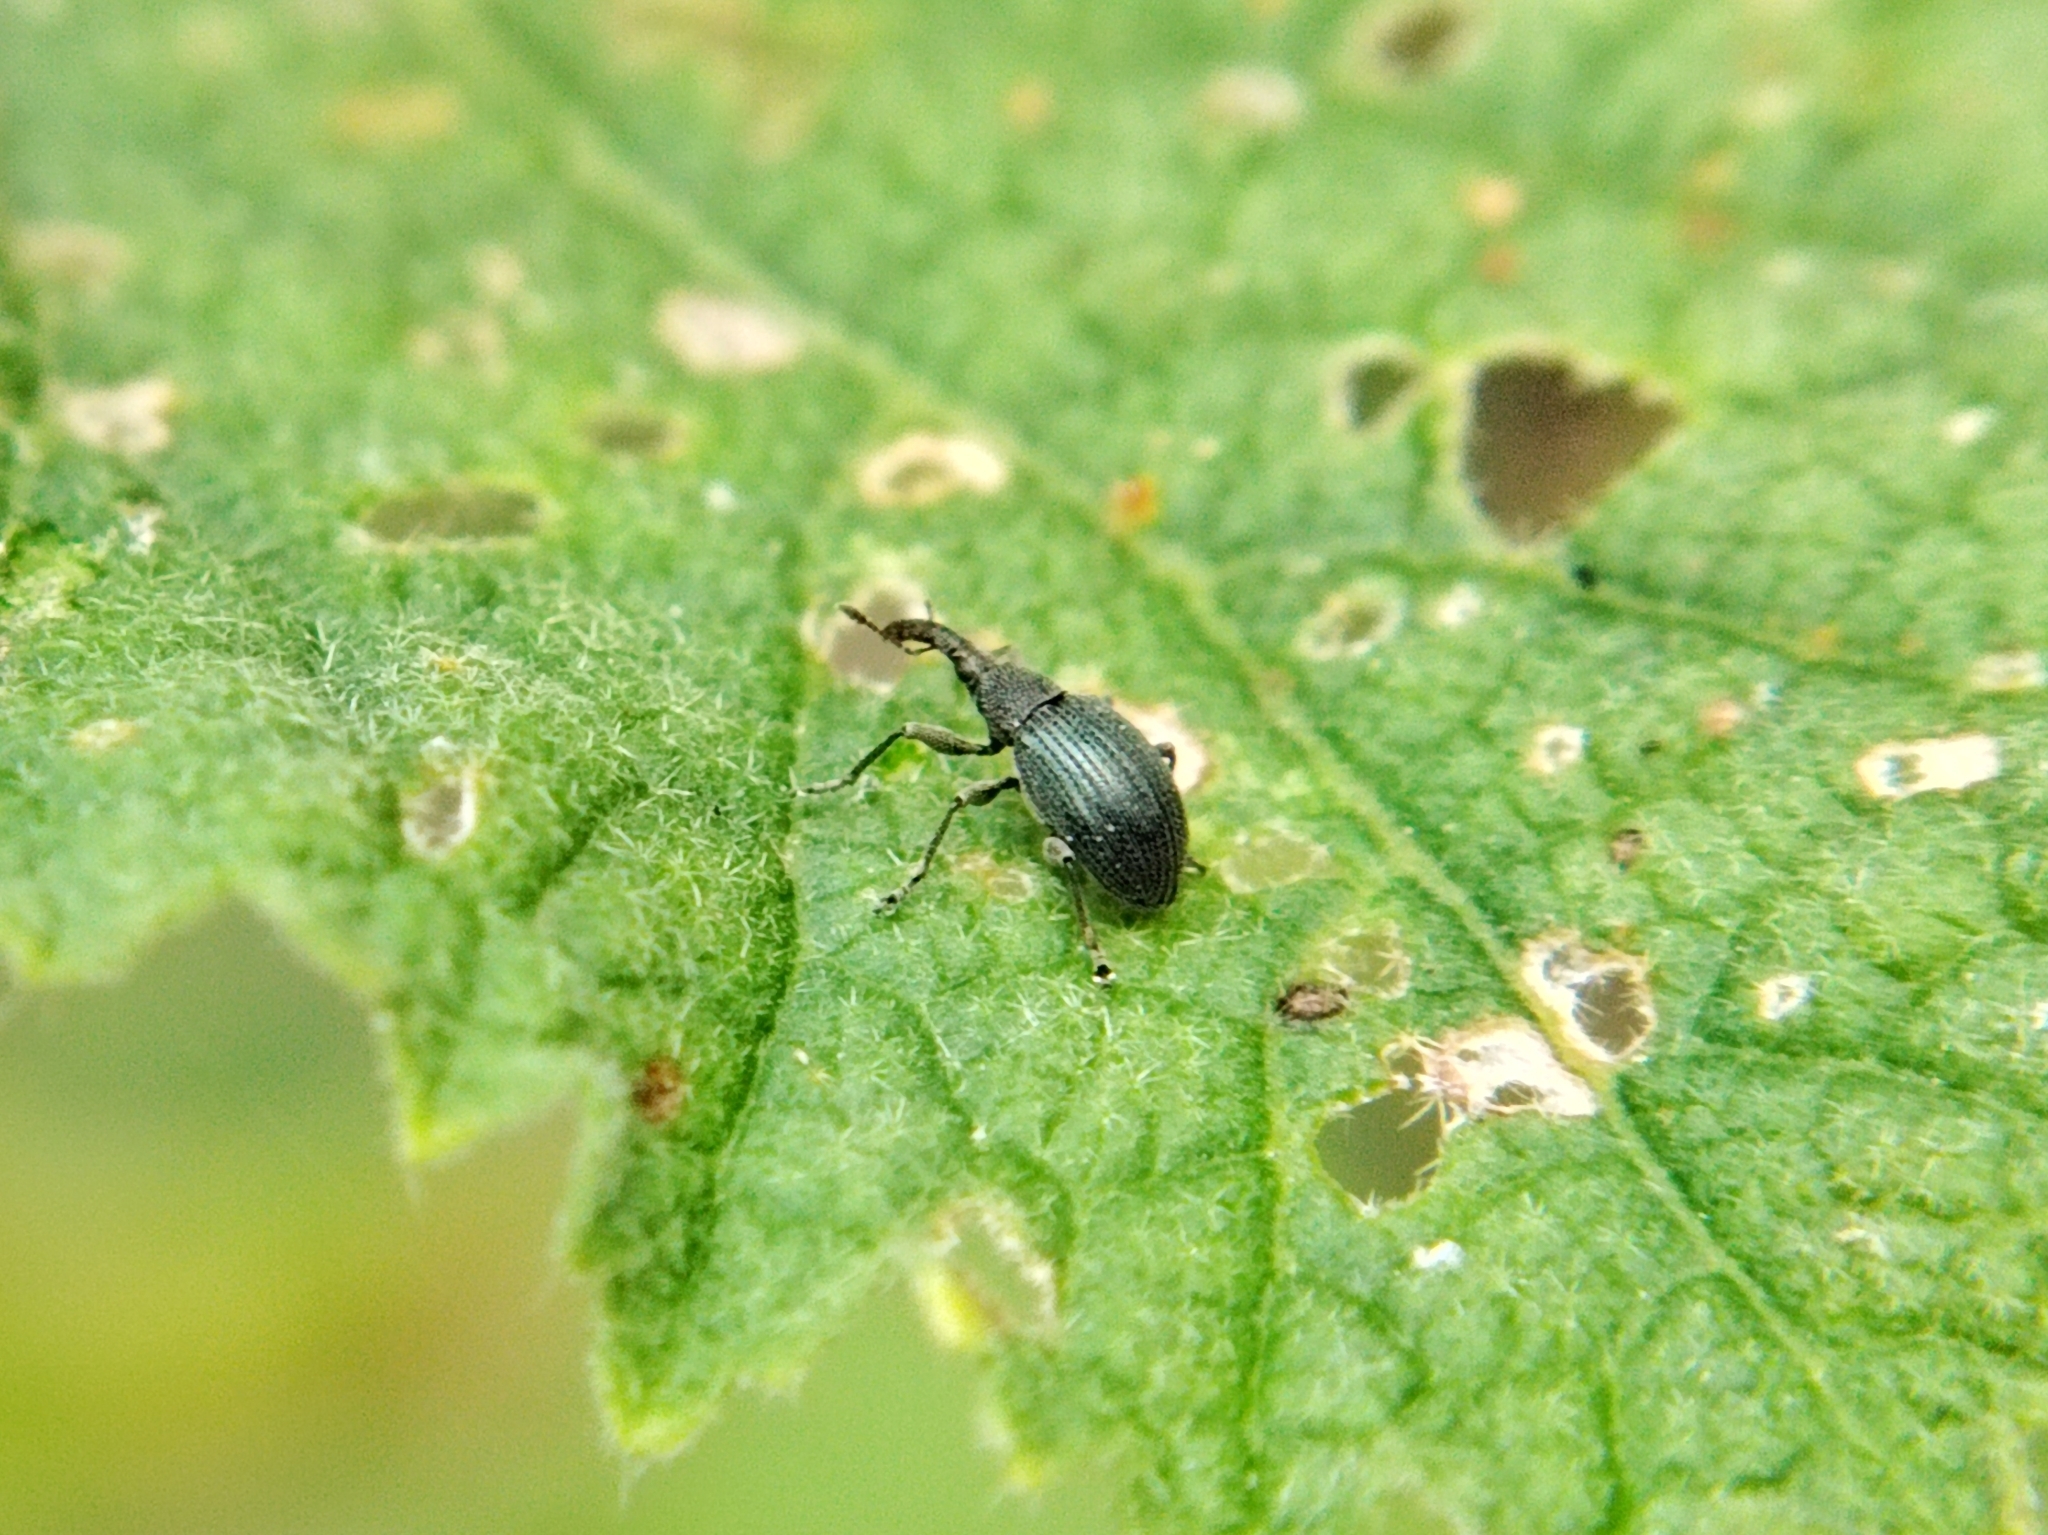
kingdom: Animalia
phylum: Arthropoda
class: Insecta
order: Coleoptera
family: Brentidae
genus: Alocentron
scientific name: Alocentron curvirostre
